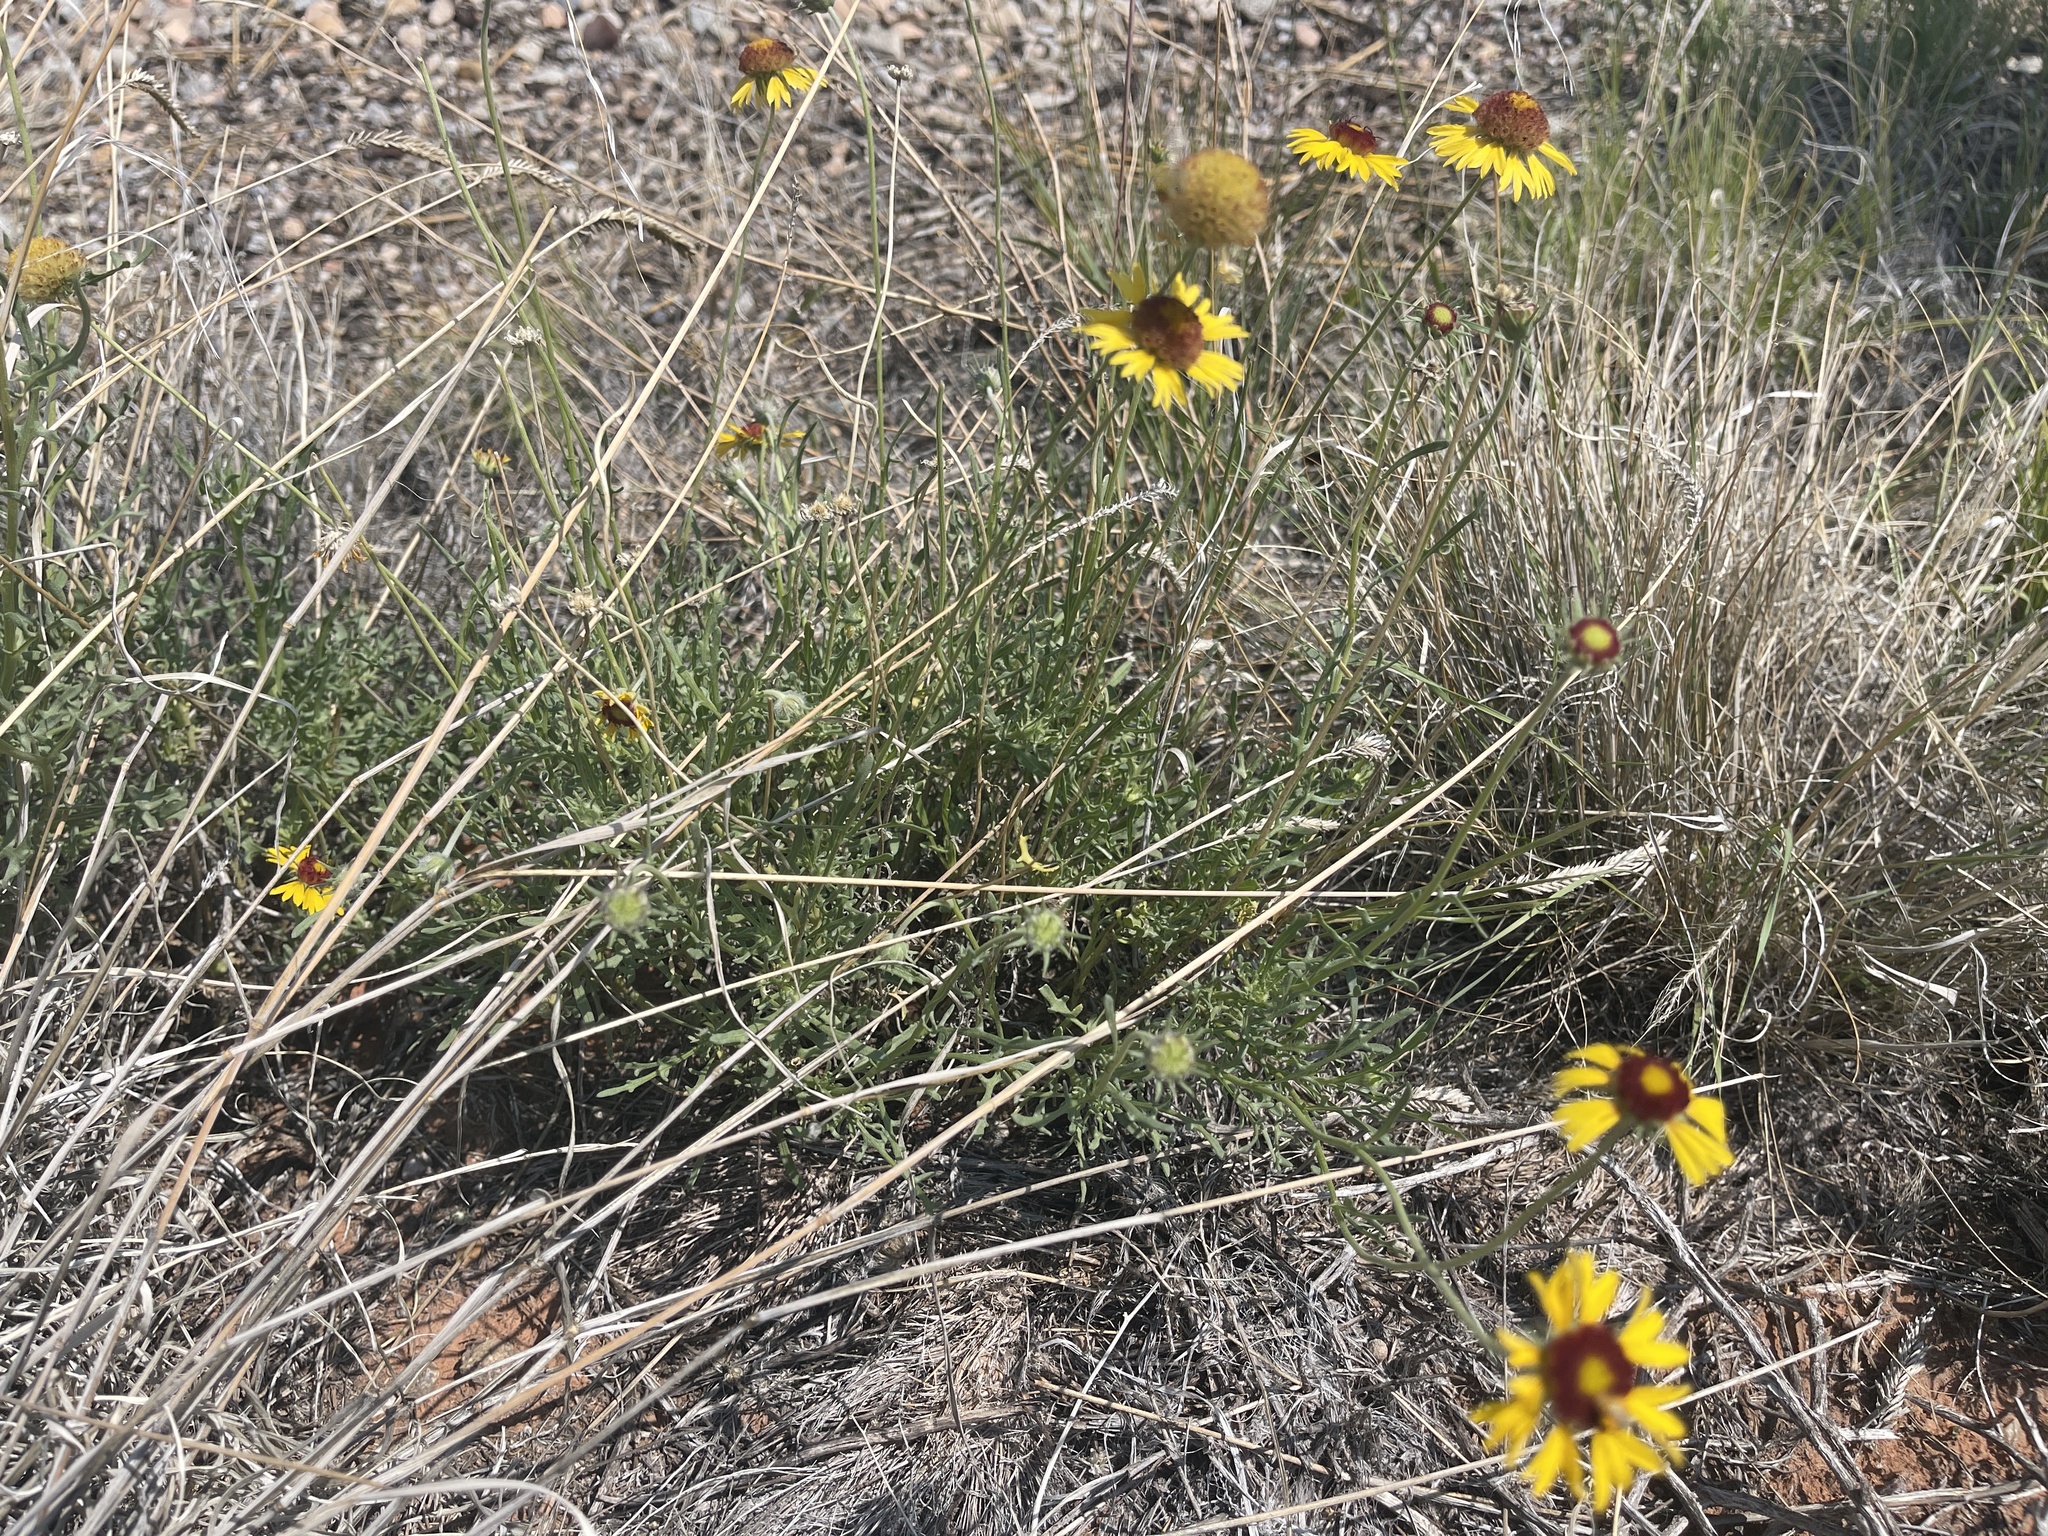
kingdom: Plantae
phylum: Tracheophyta
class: Magnoliopsida
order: Asterales
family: Asteraceae
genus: Gaillardia
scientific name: Gaillardia pinnatifida
